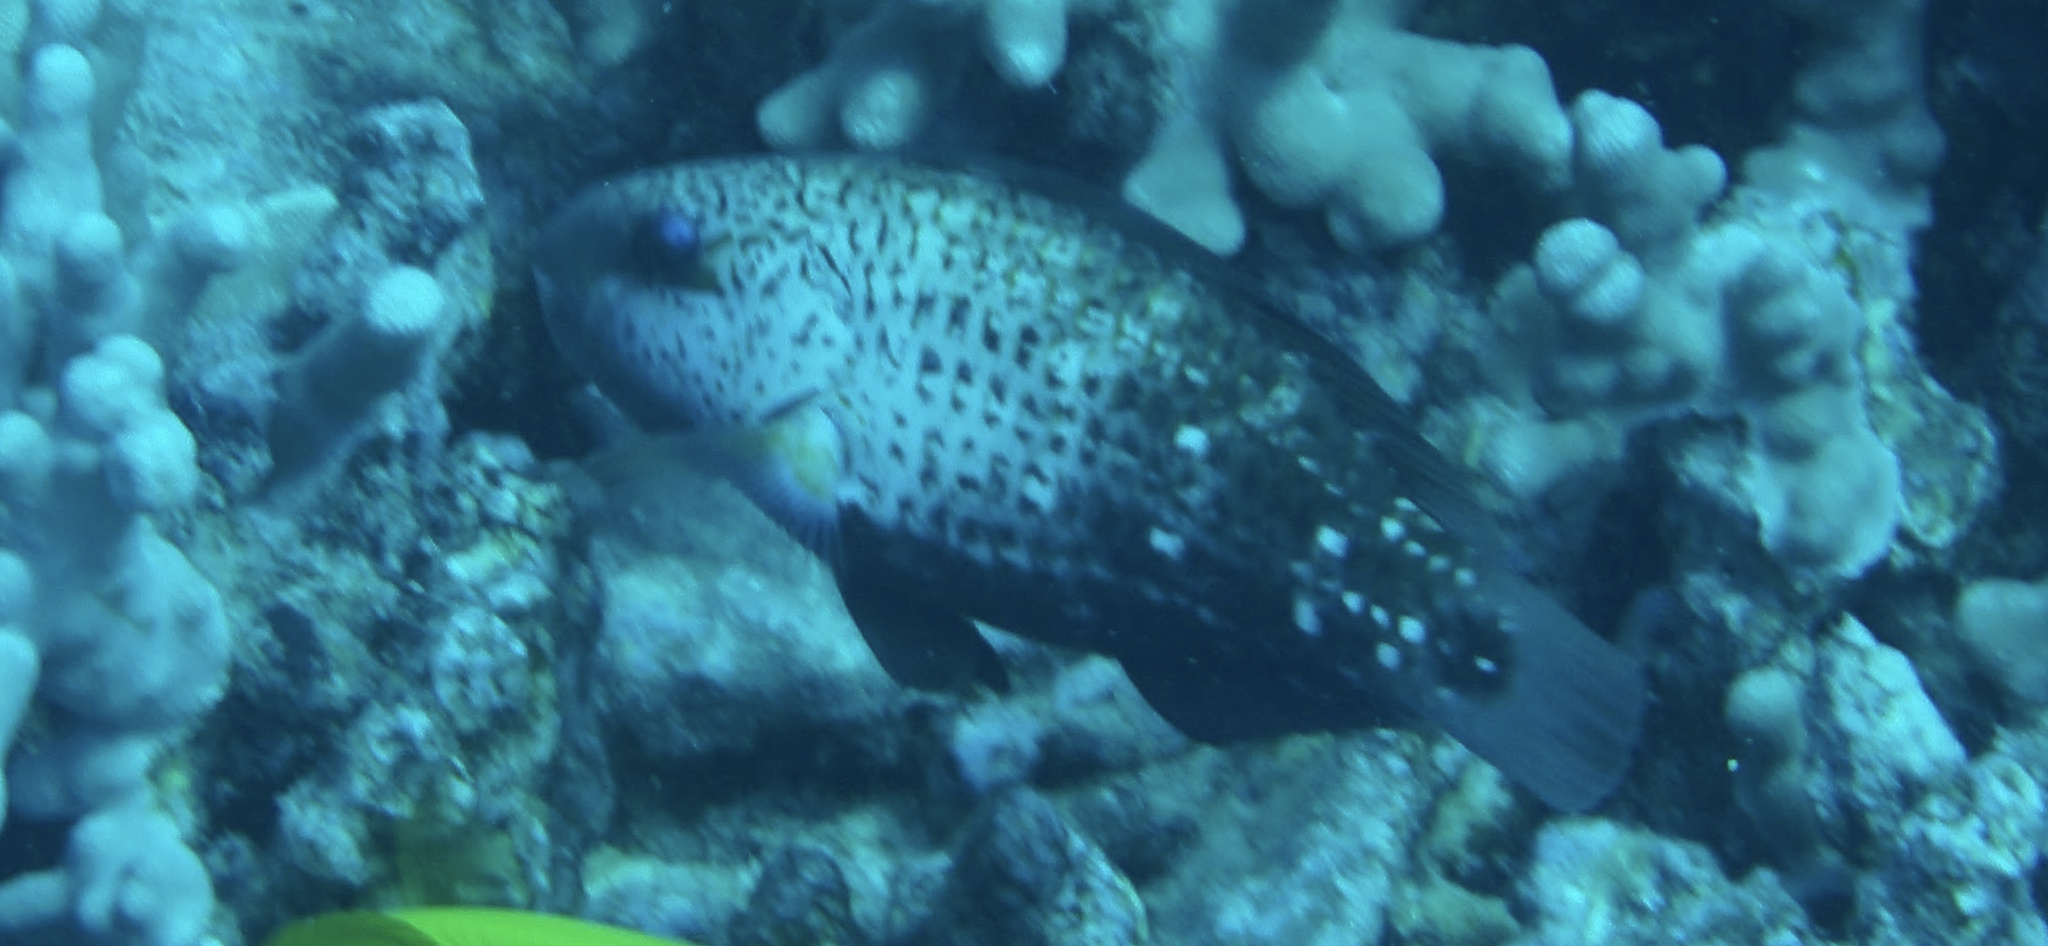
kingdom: Animalia
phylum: Chordata
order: Perciformes
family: Scaridae
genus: Chlorurus
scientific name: Chlorurus spilurus
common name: Bullethead parrotfish
